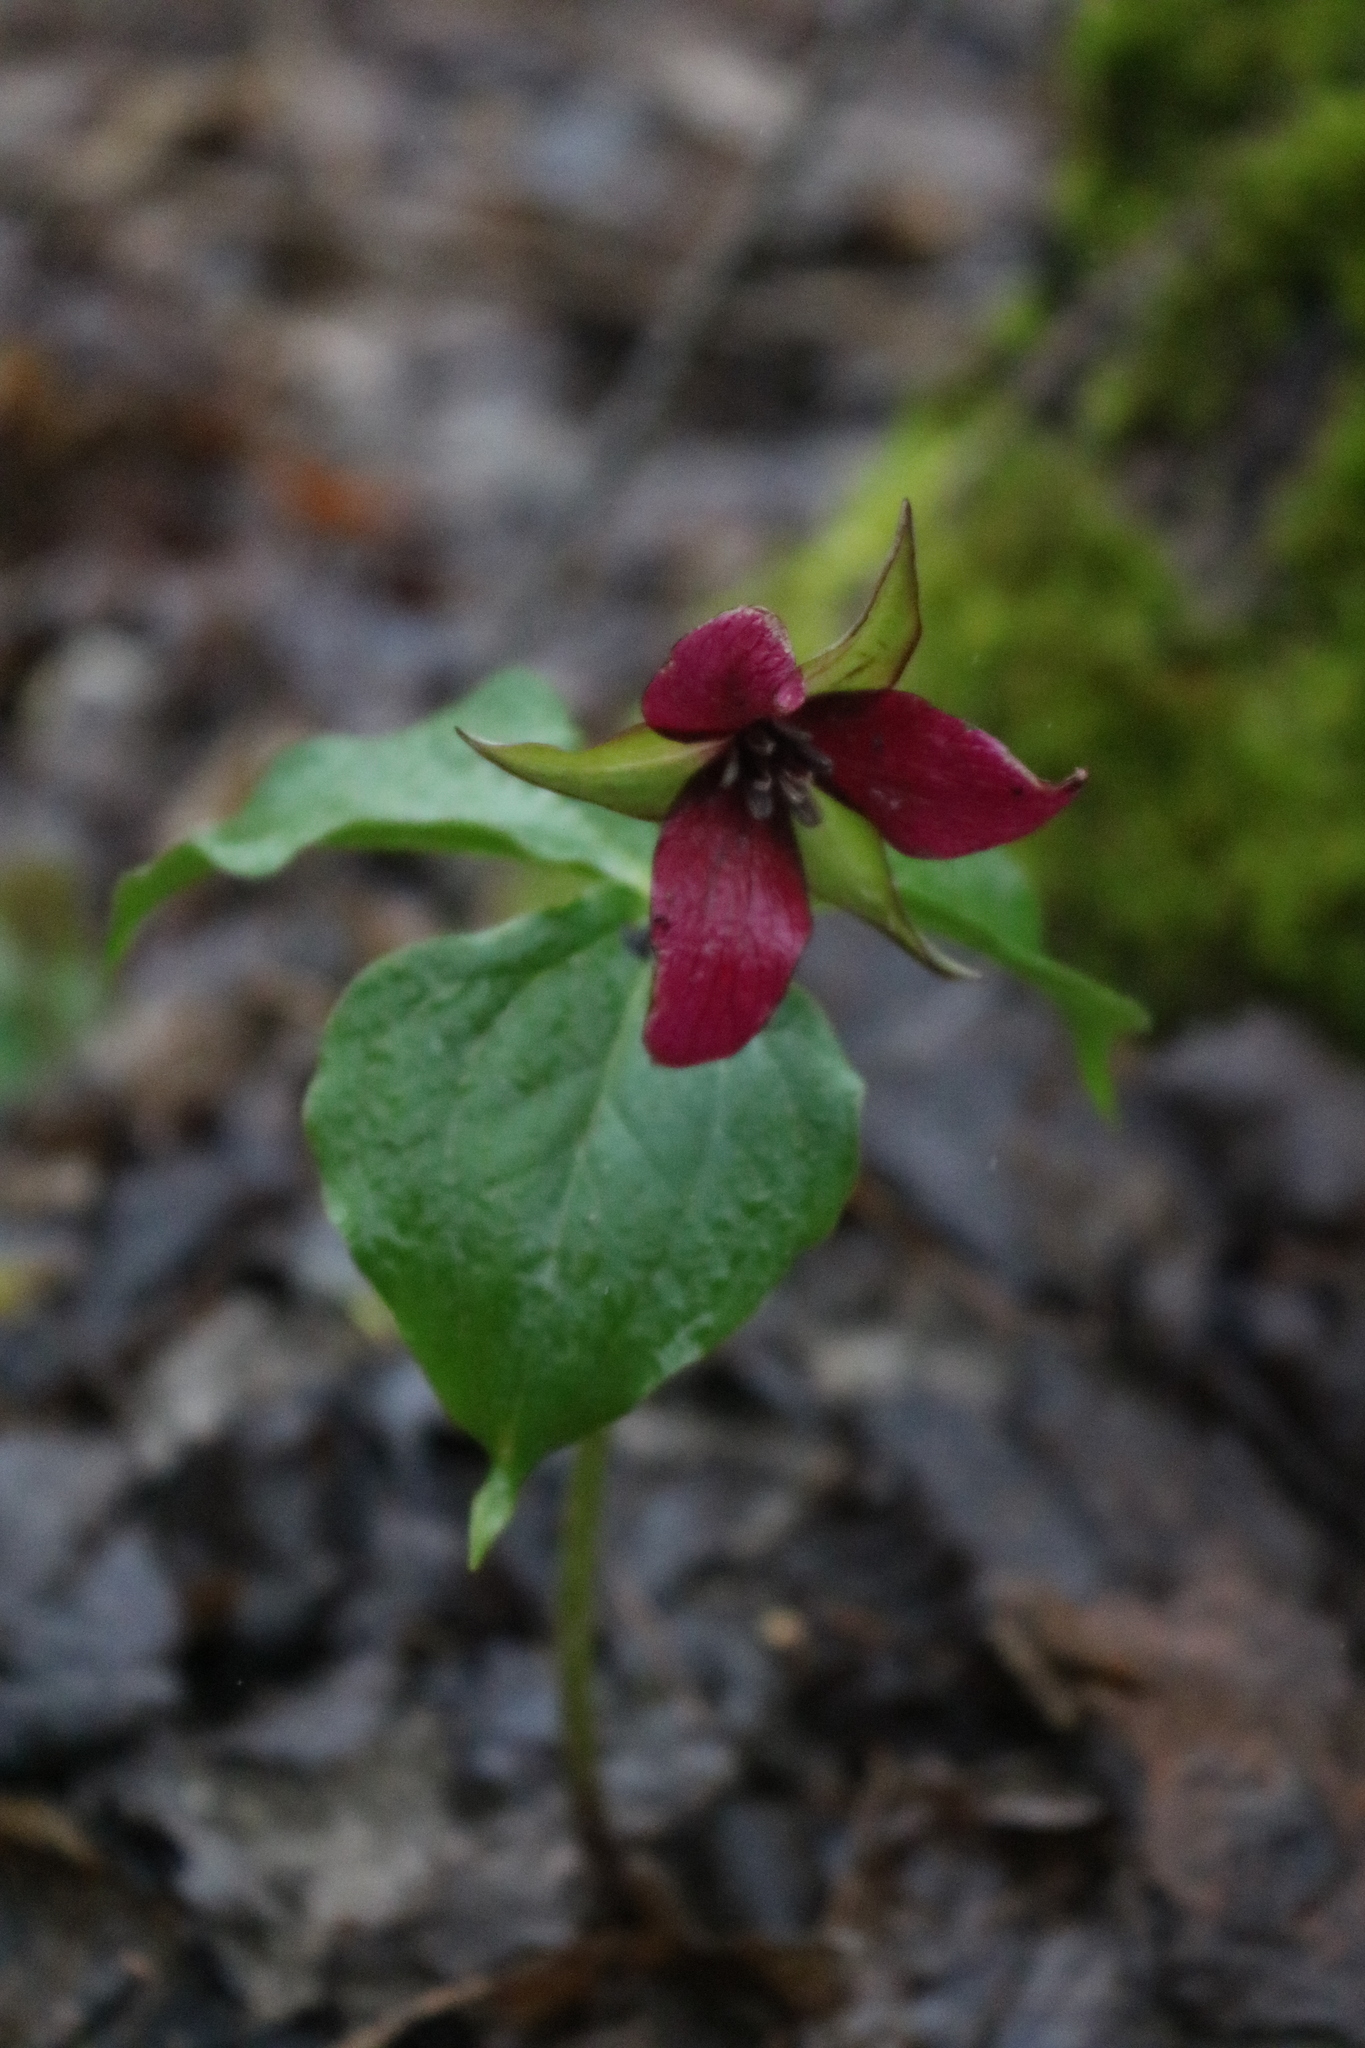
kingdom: Plantae
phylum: Tracheophyta
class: Liliopsida
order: Liliales
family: Melanthiaceae
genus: Trillium
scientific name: Trillium erectum
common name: Purple trillium
